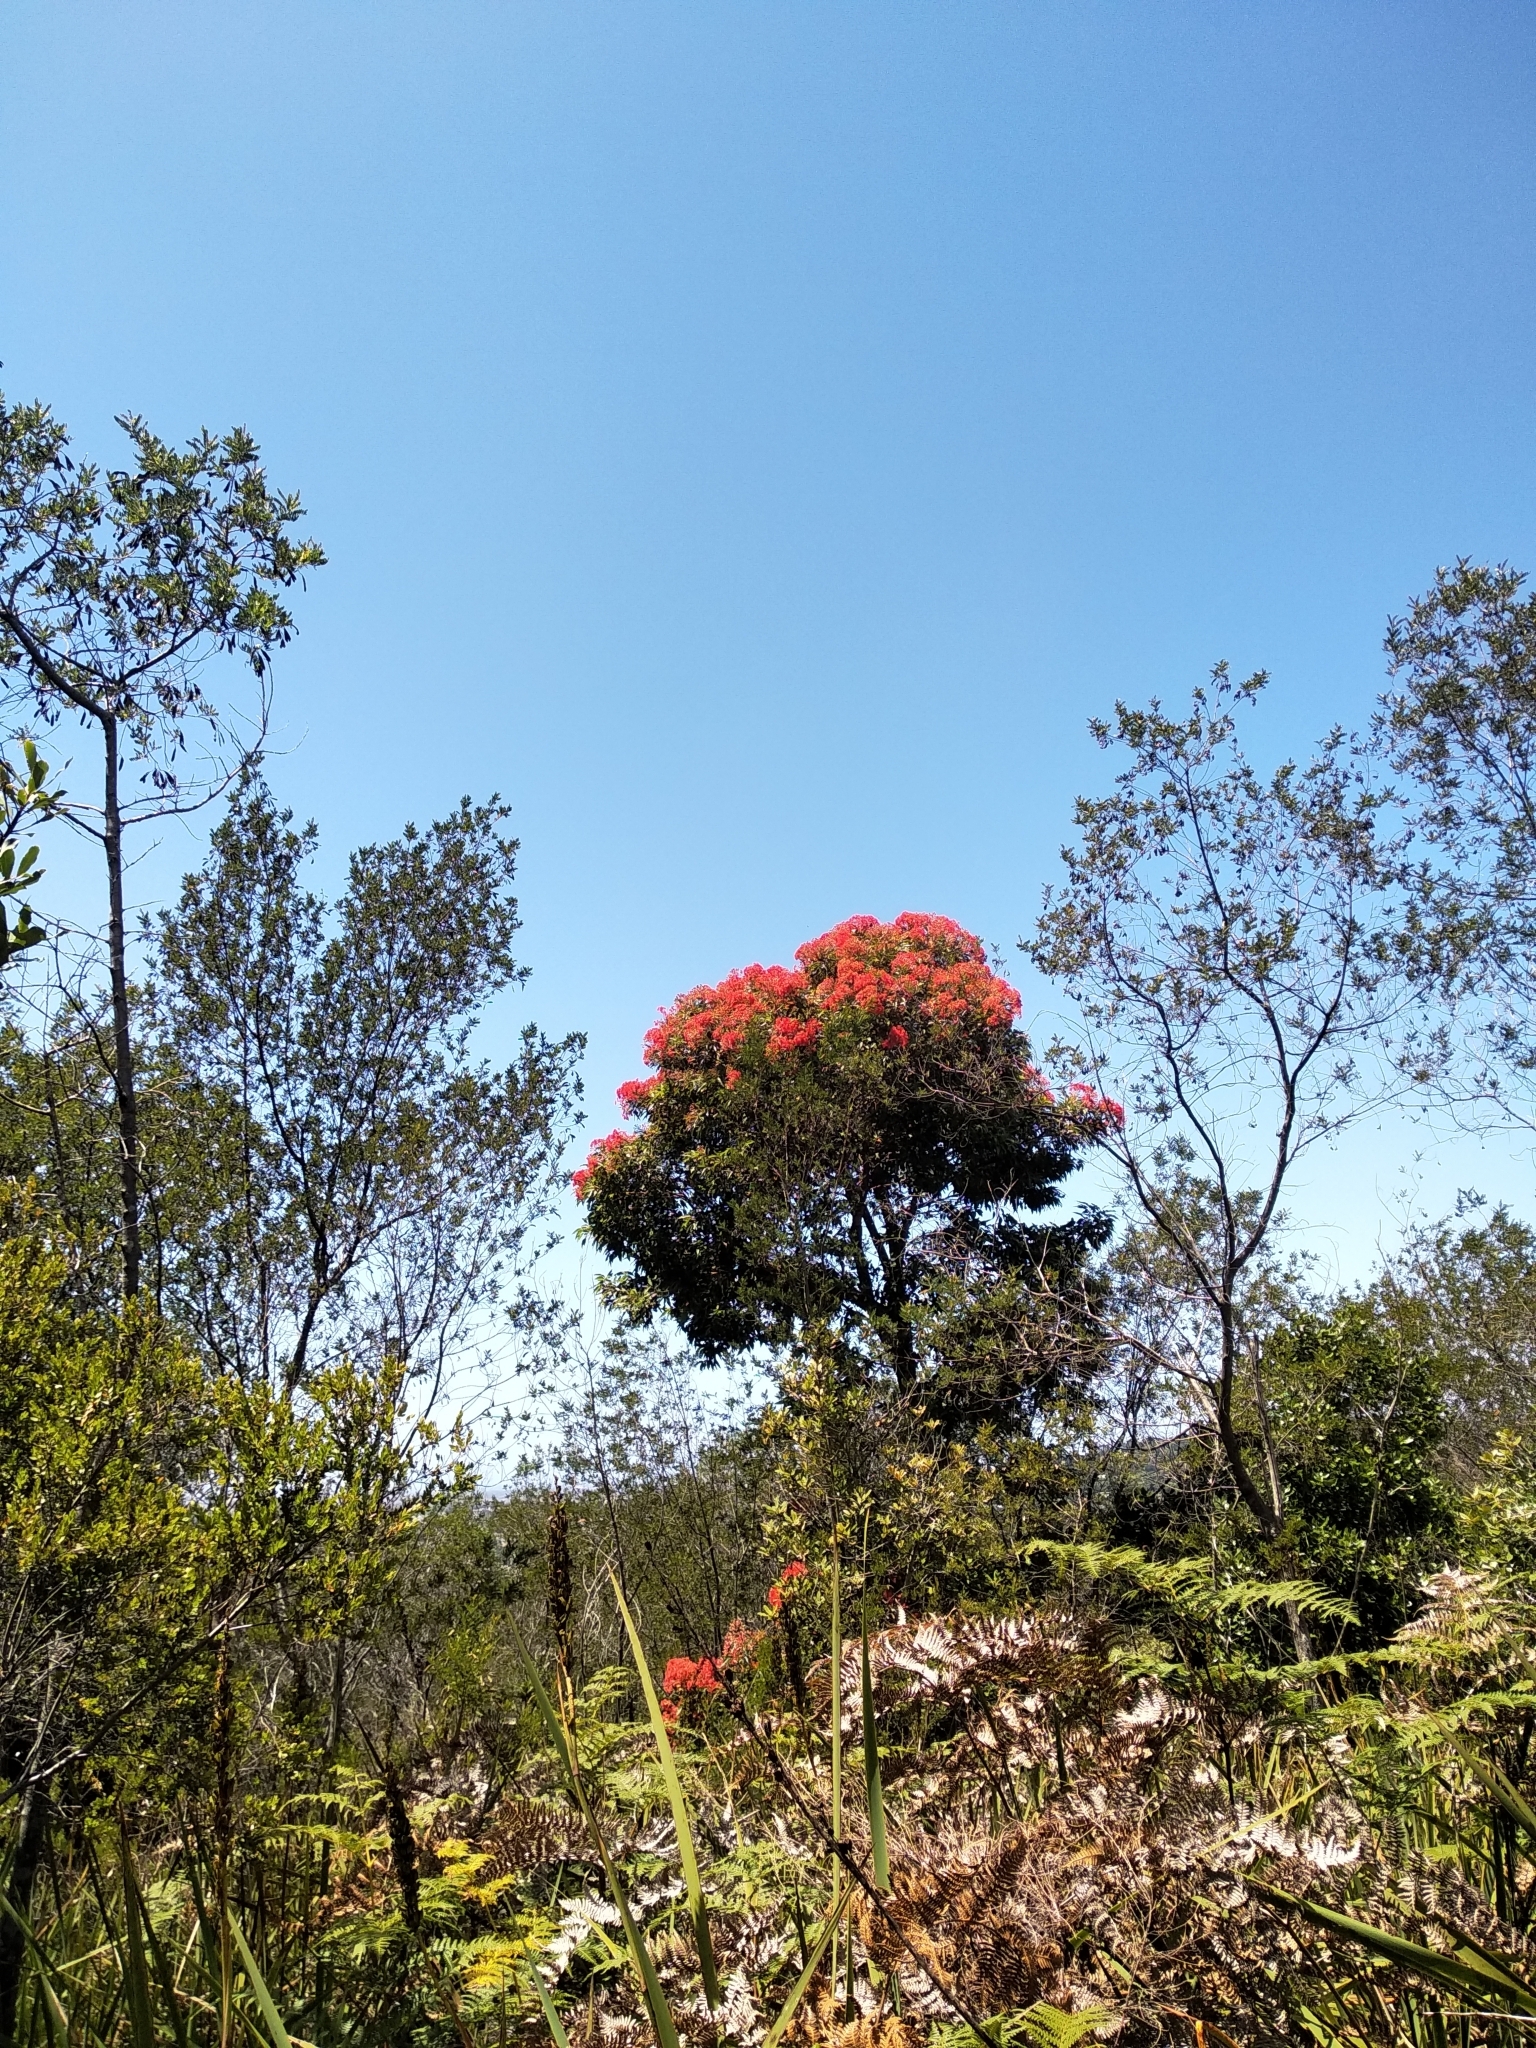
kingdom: Plantae
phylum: Tracheophyta
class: Magnoliopsida
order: Myrtales
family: Myrtaceae
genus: Corymbia
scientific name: Corymbia ficifolia
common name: Redflower gum
